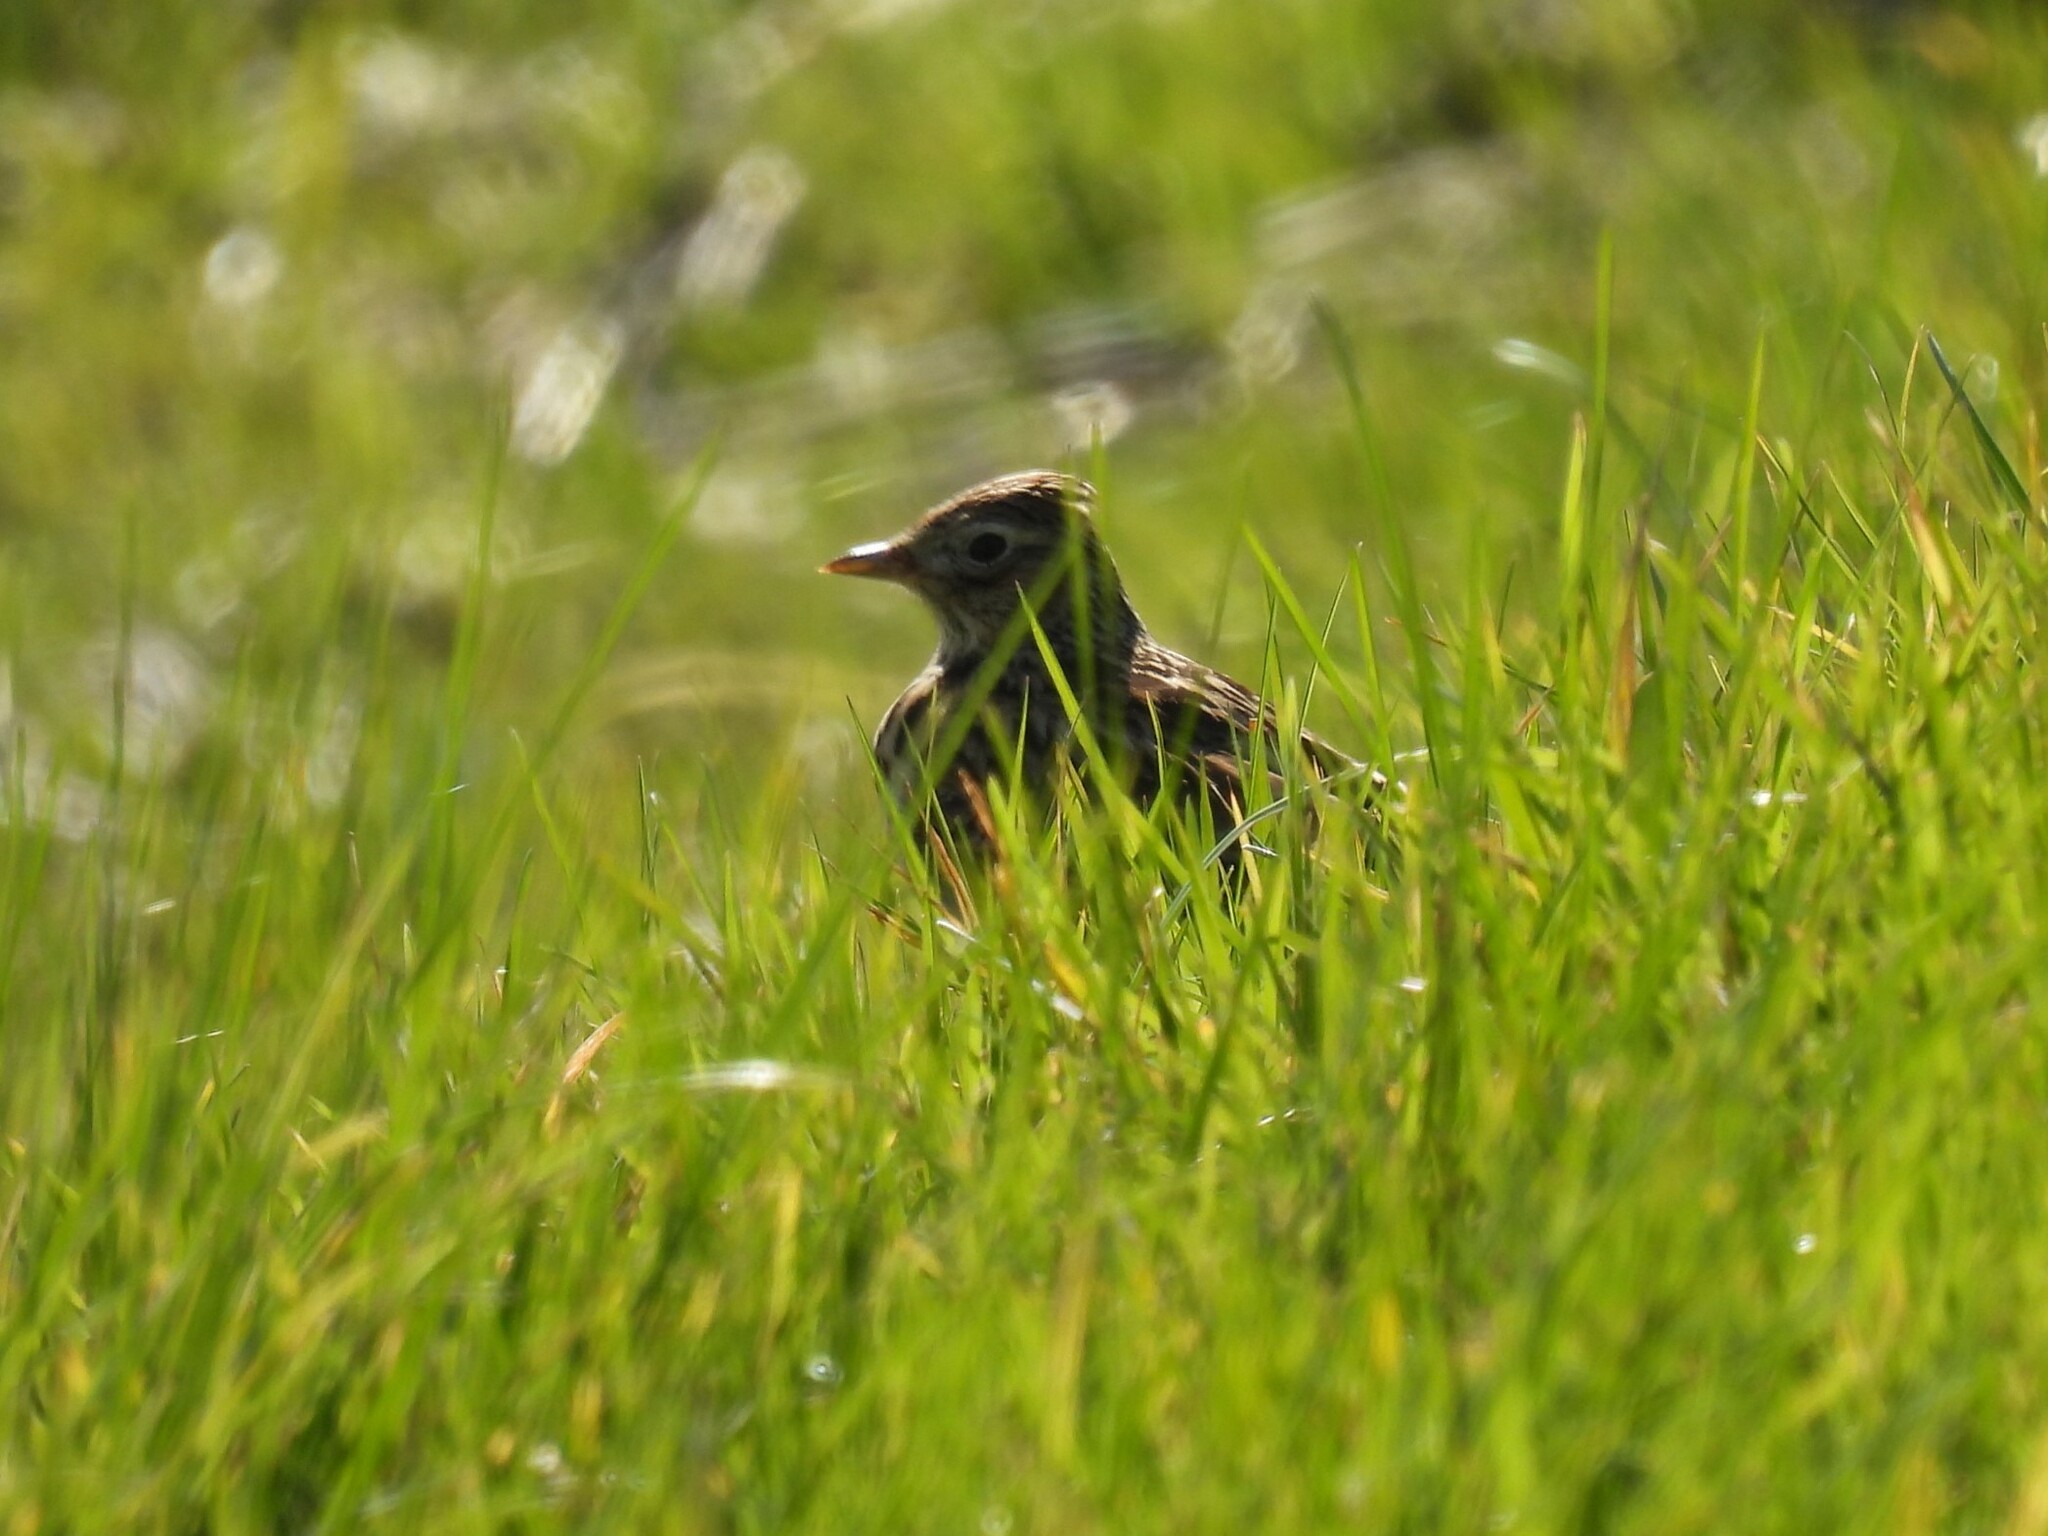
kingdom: Animalia
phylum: Chordata
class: Aves
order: Passeriformes
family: Alaudidae
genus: Alauda
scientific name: Alauda arvensis
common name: Eurasian skylark
